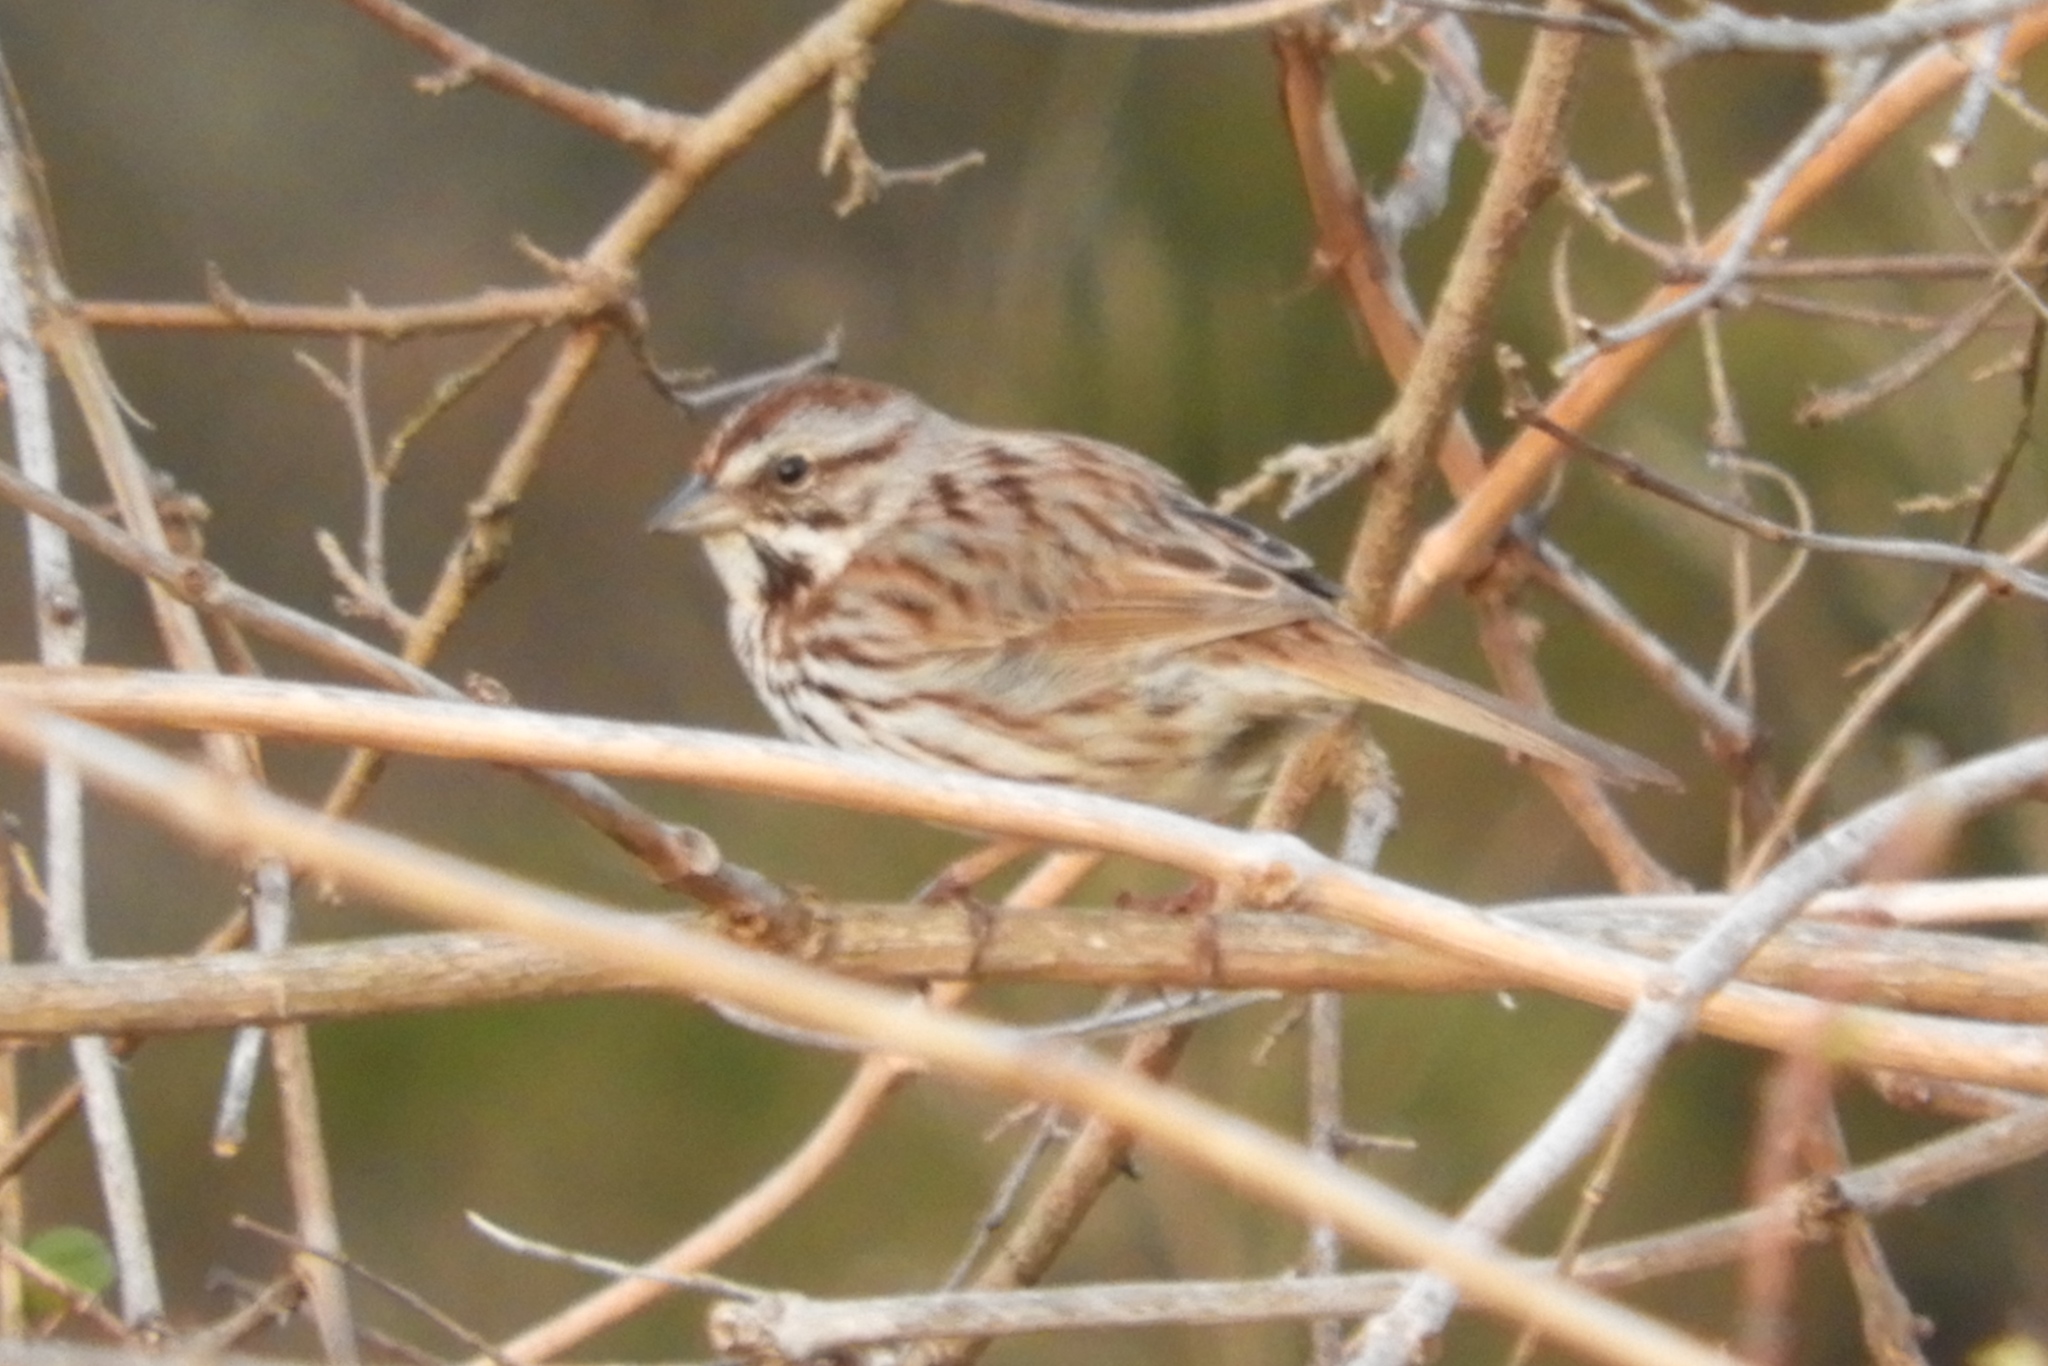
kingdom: Animalia
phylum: Chordata
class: Aves
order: Passeriformes
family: Passerellidae
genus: Melospiza
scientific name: Melospiza melodia
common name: Song sparrow
